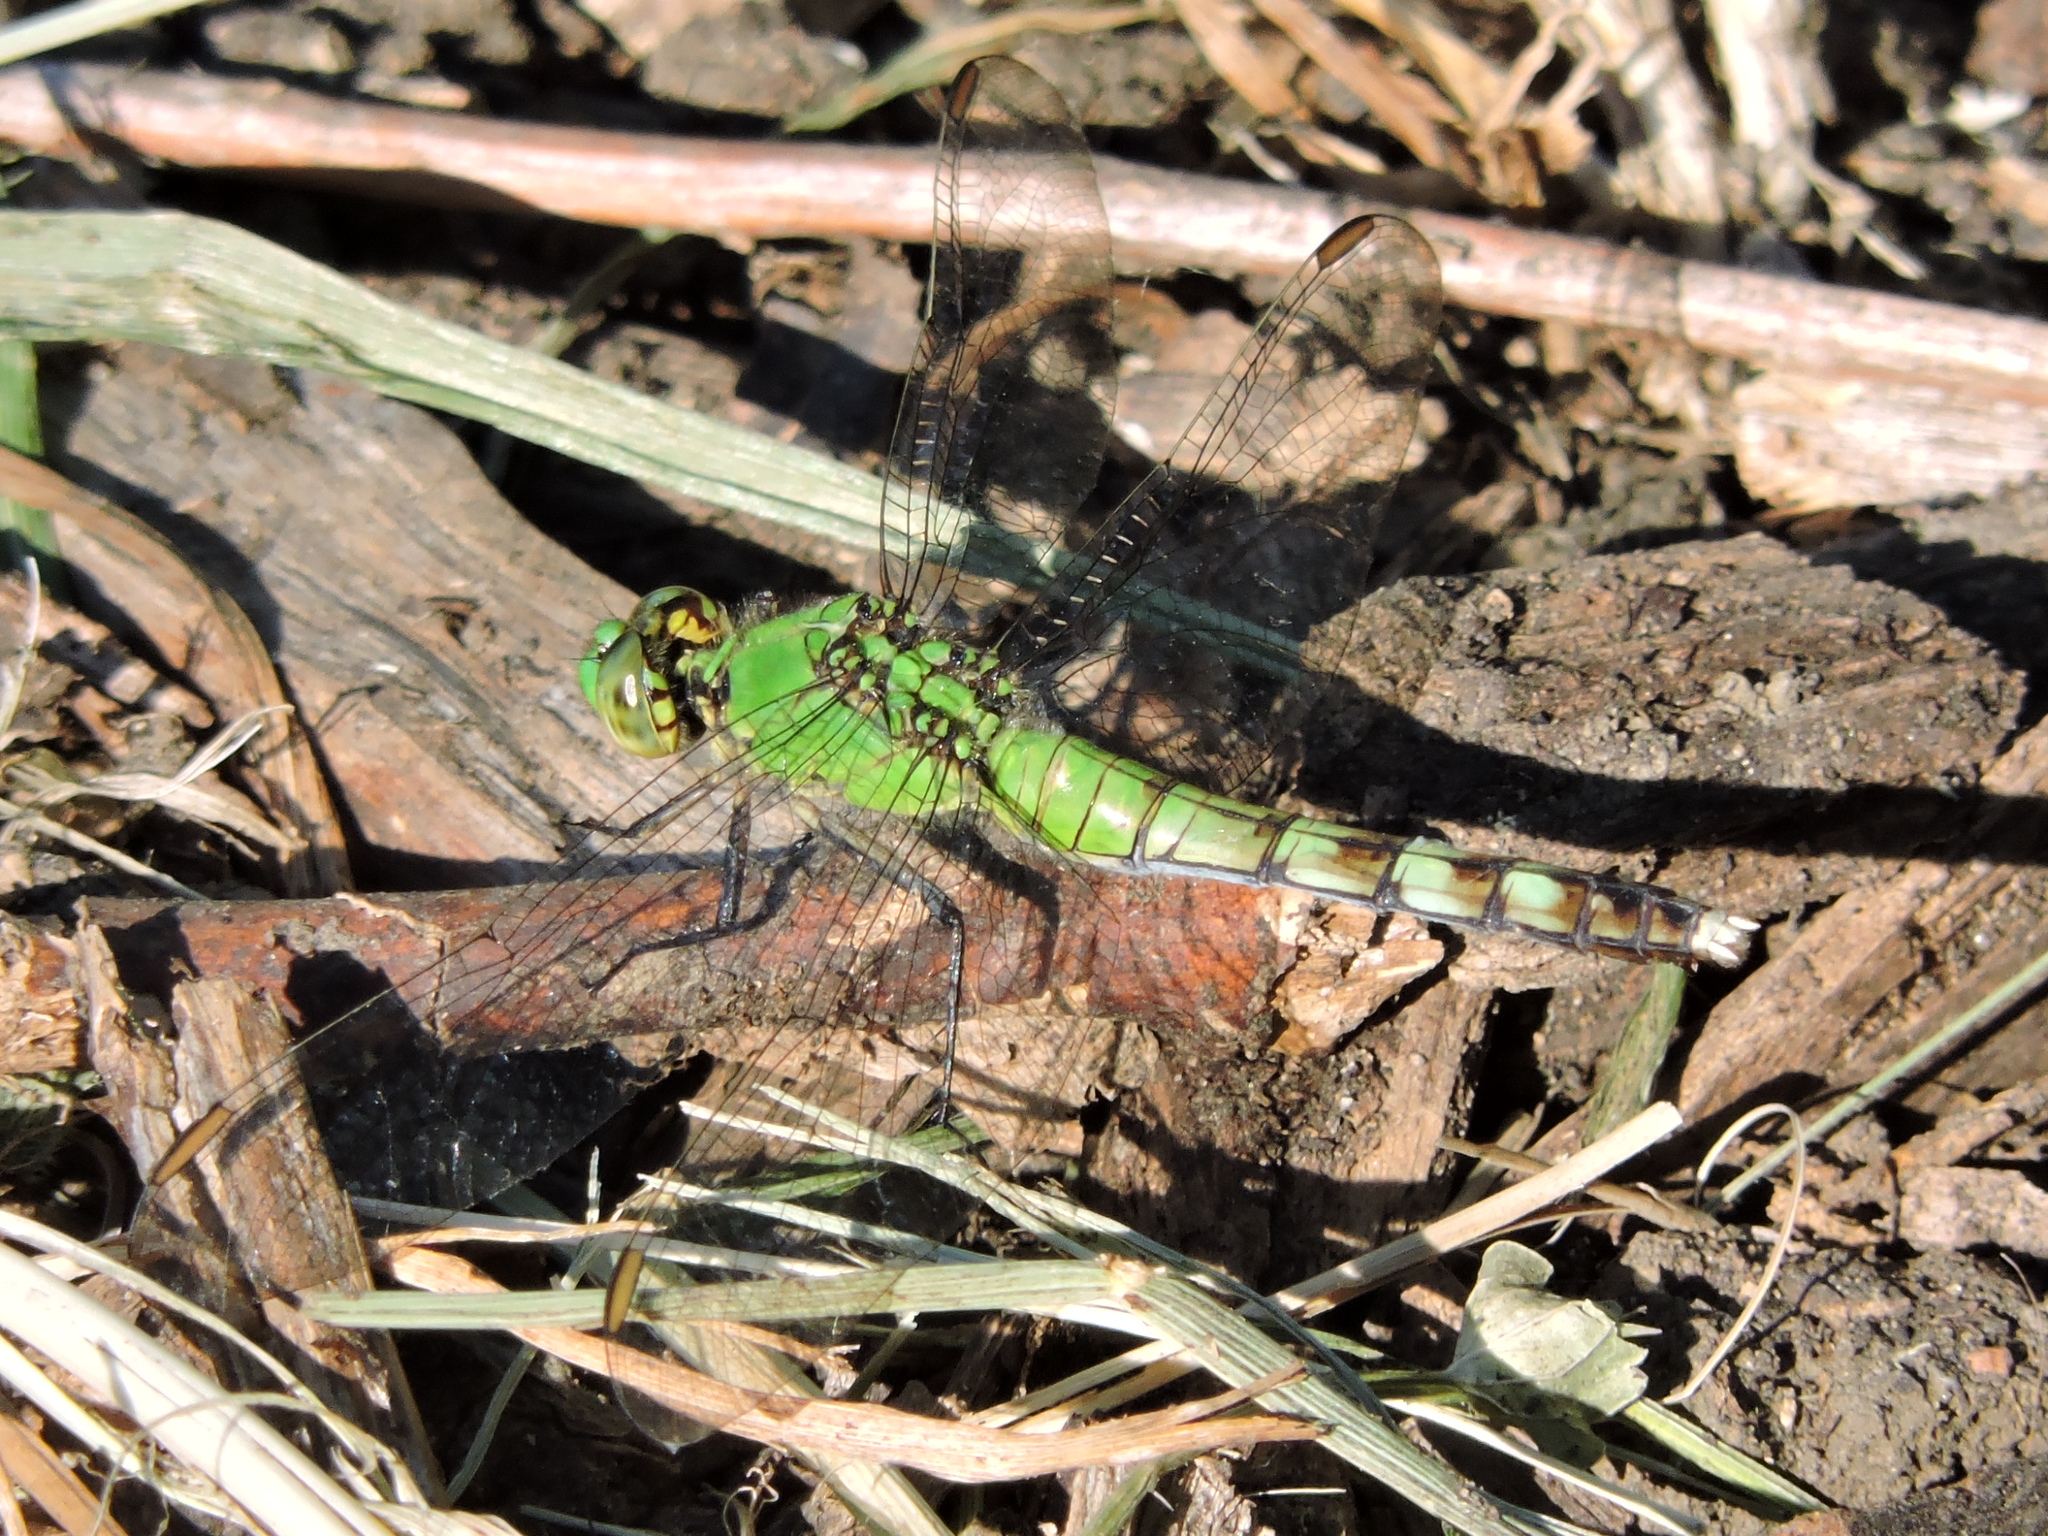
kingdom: Animalia
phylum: Arthropoda
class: Insecta
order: Odonata
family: Libellulidae
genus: Erythemis
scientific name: Erythemis simplicicollis
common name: Eastern pondhawk
